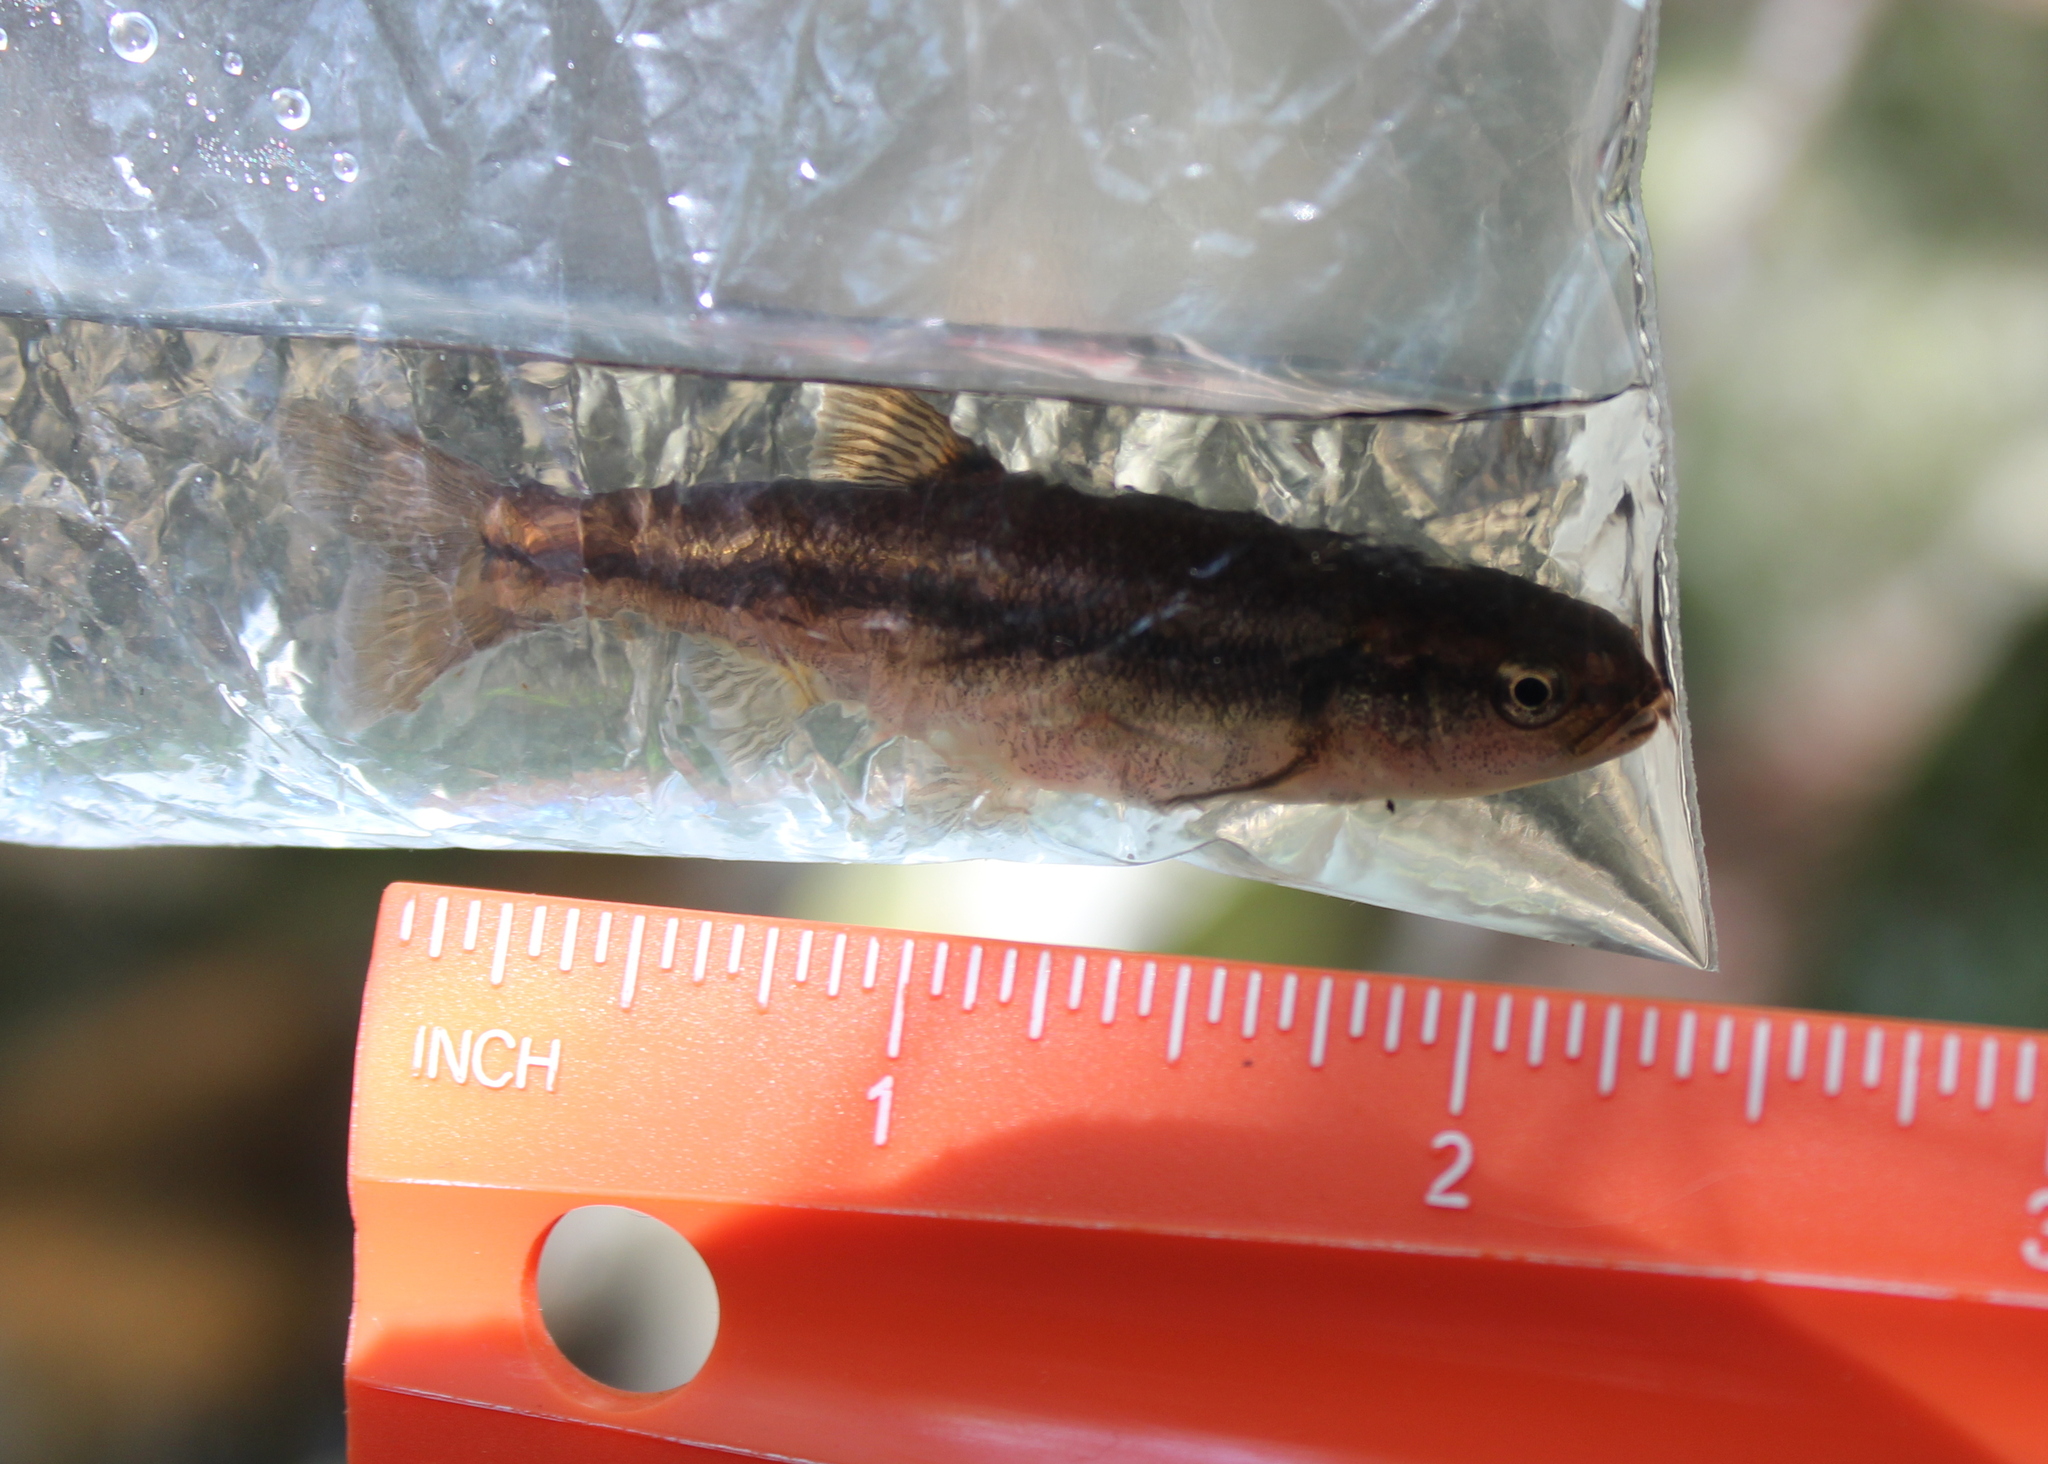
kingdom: Animalia
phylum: Chordata
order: Cypriniformes
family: Cyprinidae
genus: Semotilus
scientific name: Semotilus atromaculatus
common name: Creek chub
